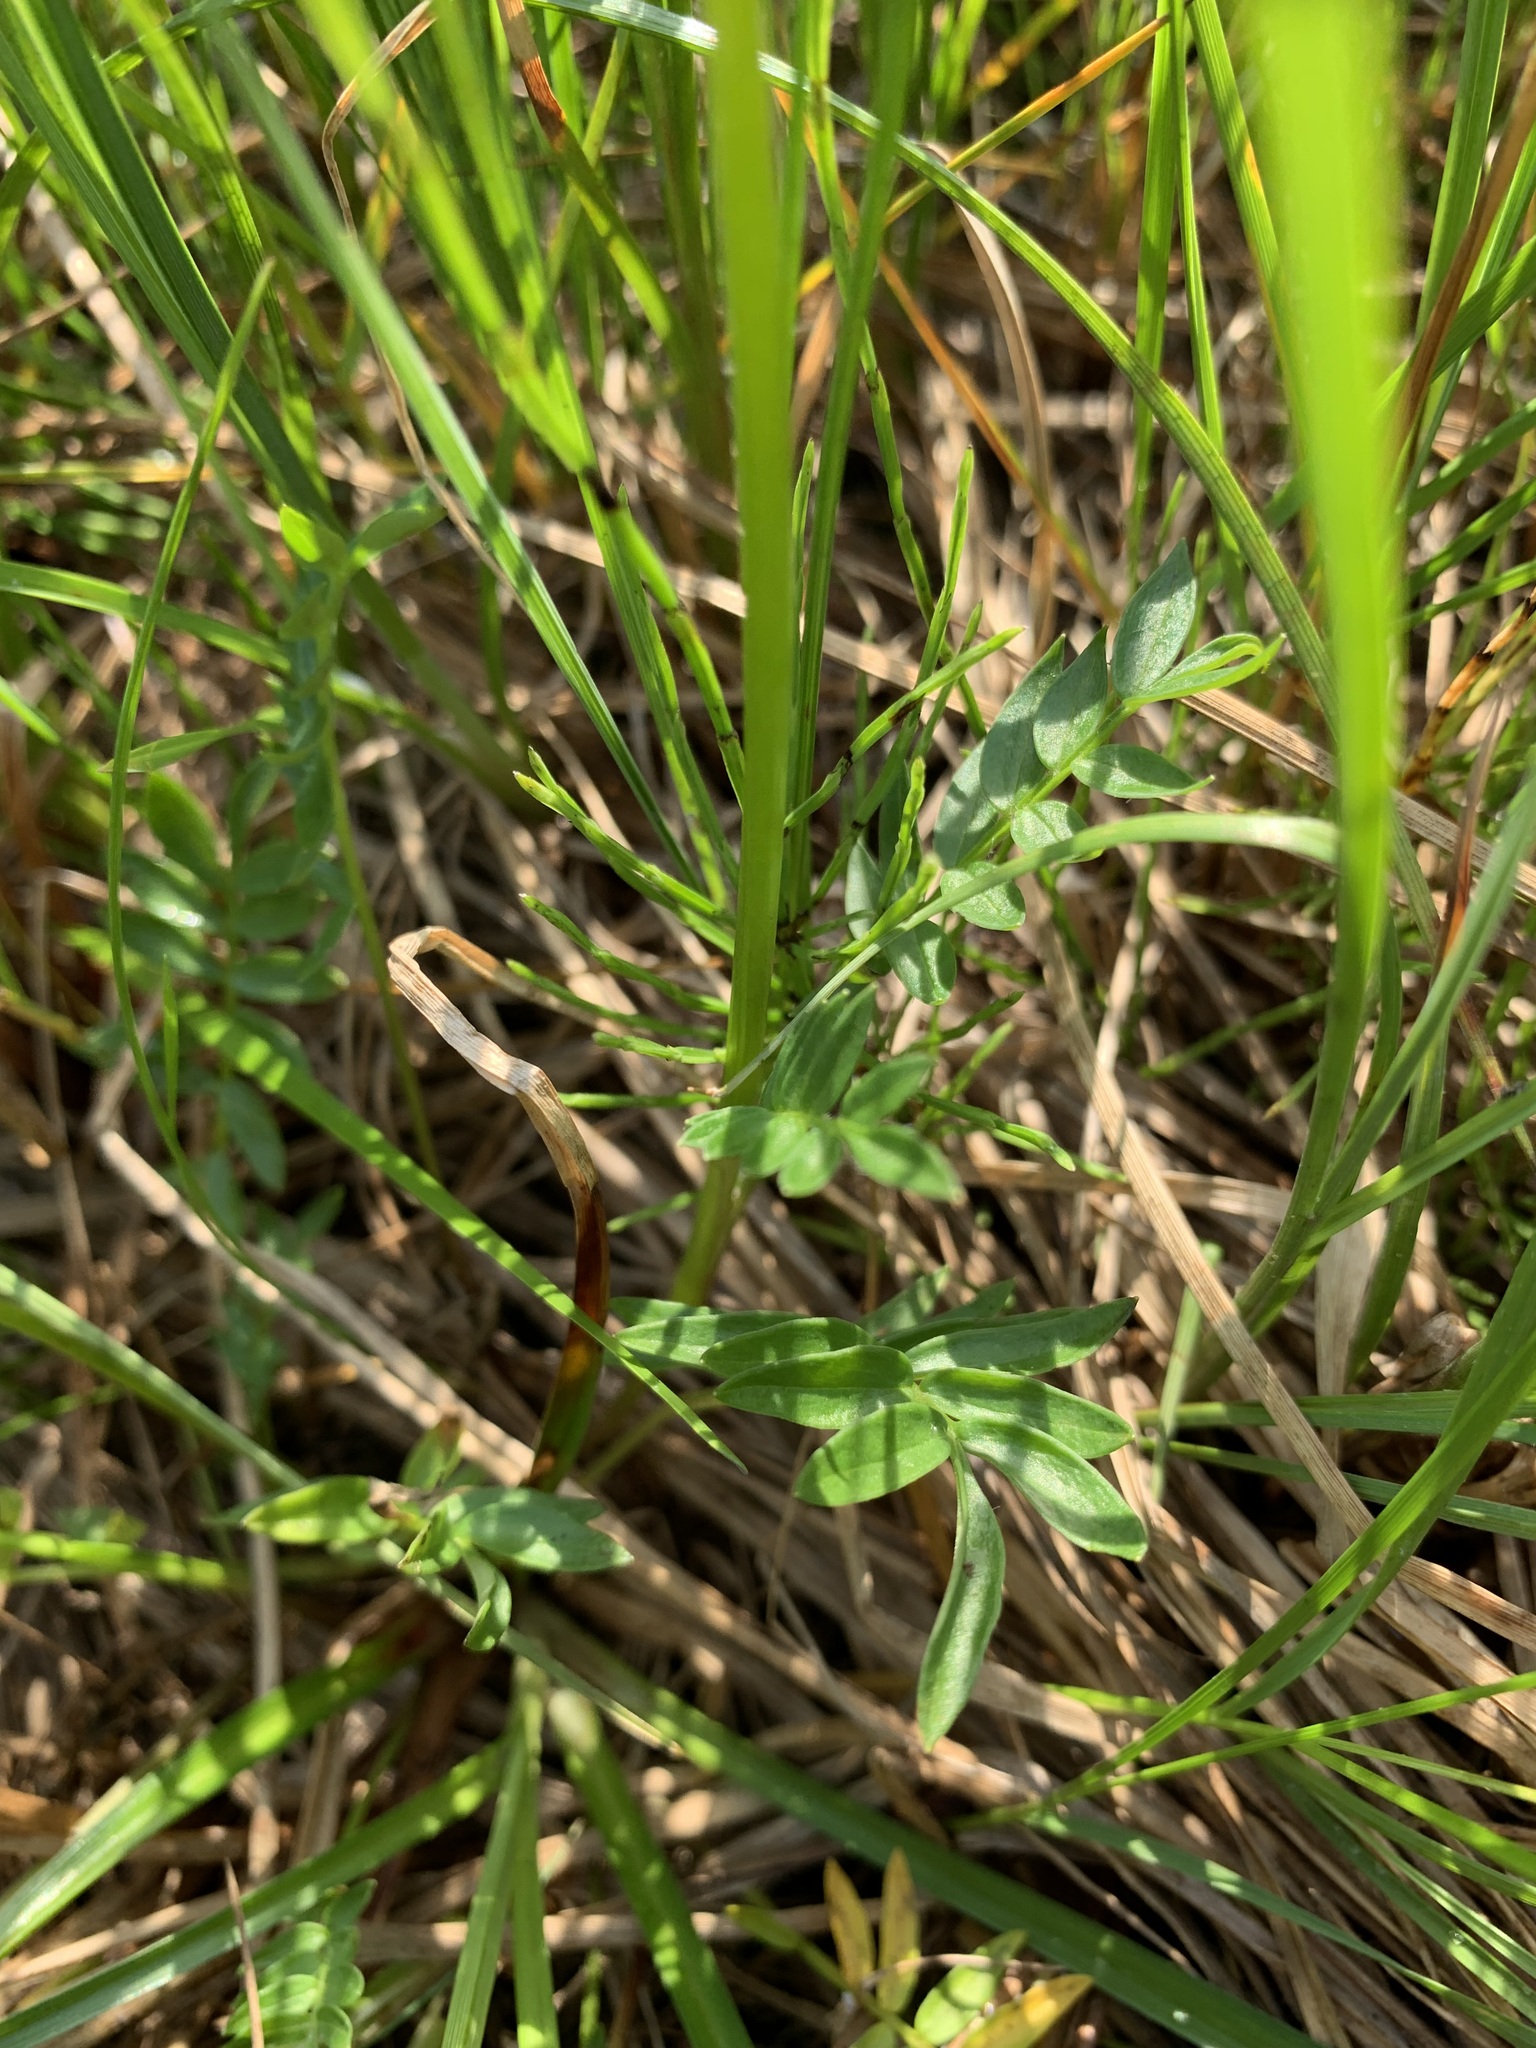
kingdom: Plantae
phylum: Tracheophyta
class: Magnoliopsida
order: Ericales
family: Polemoniaceae
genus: Polemonium
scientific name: Polemonium acutiflorum
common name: Tall jacob's-ladder
